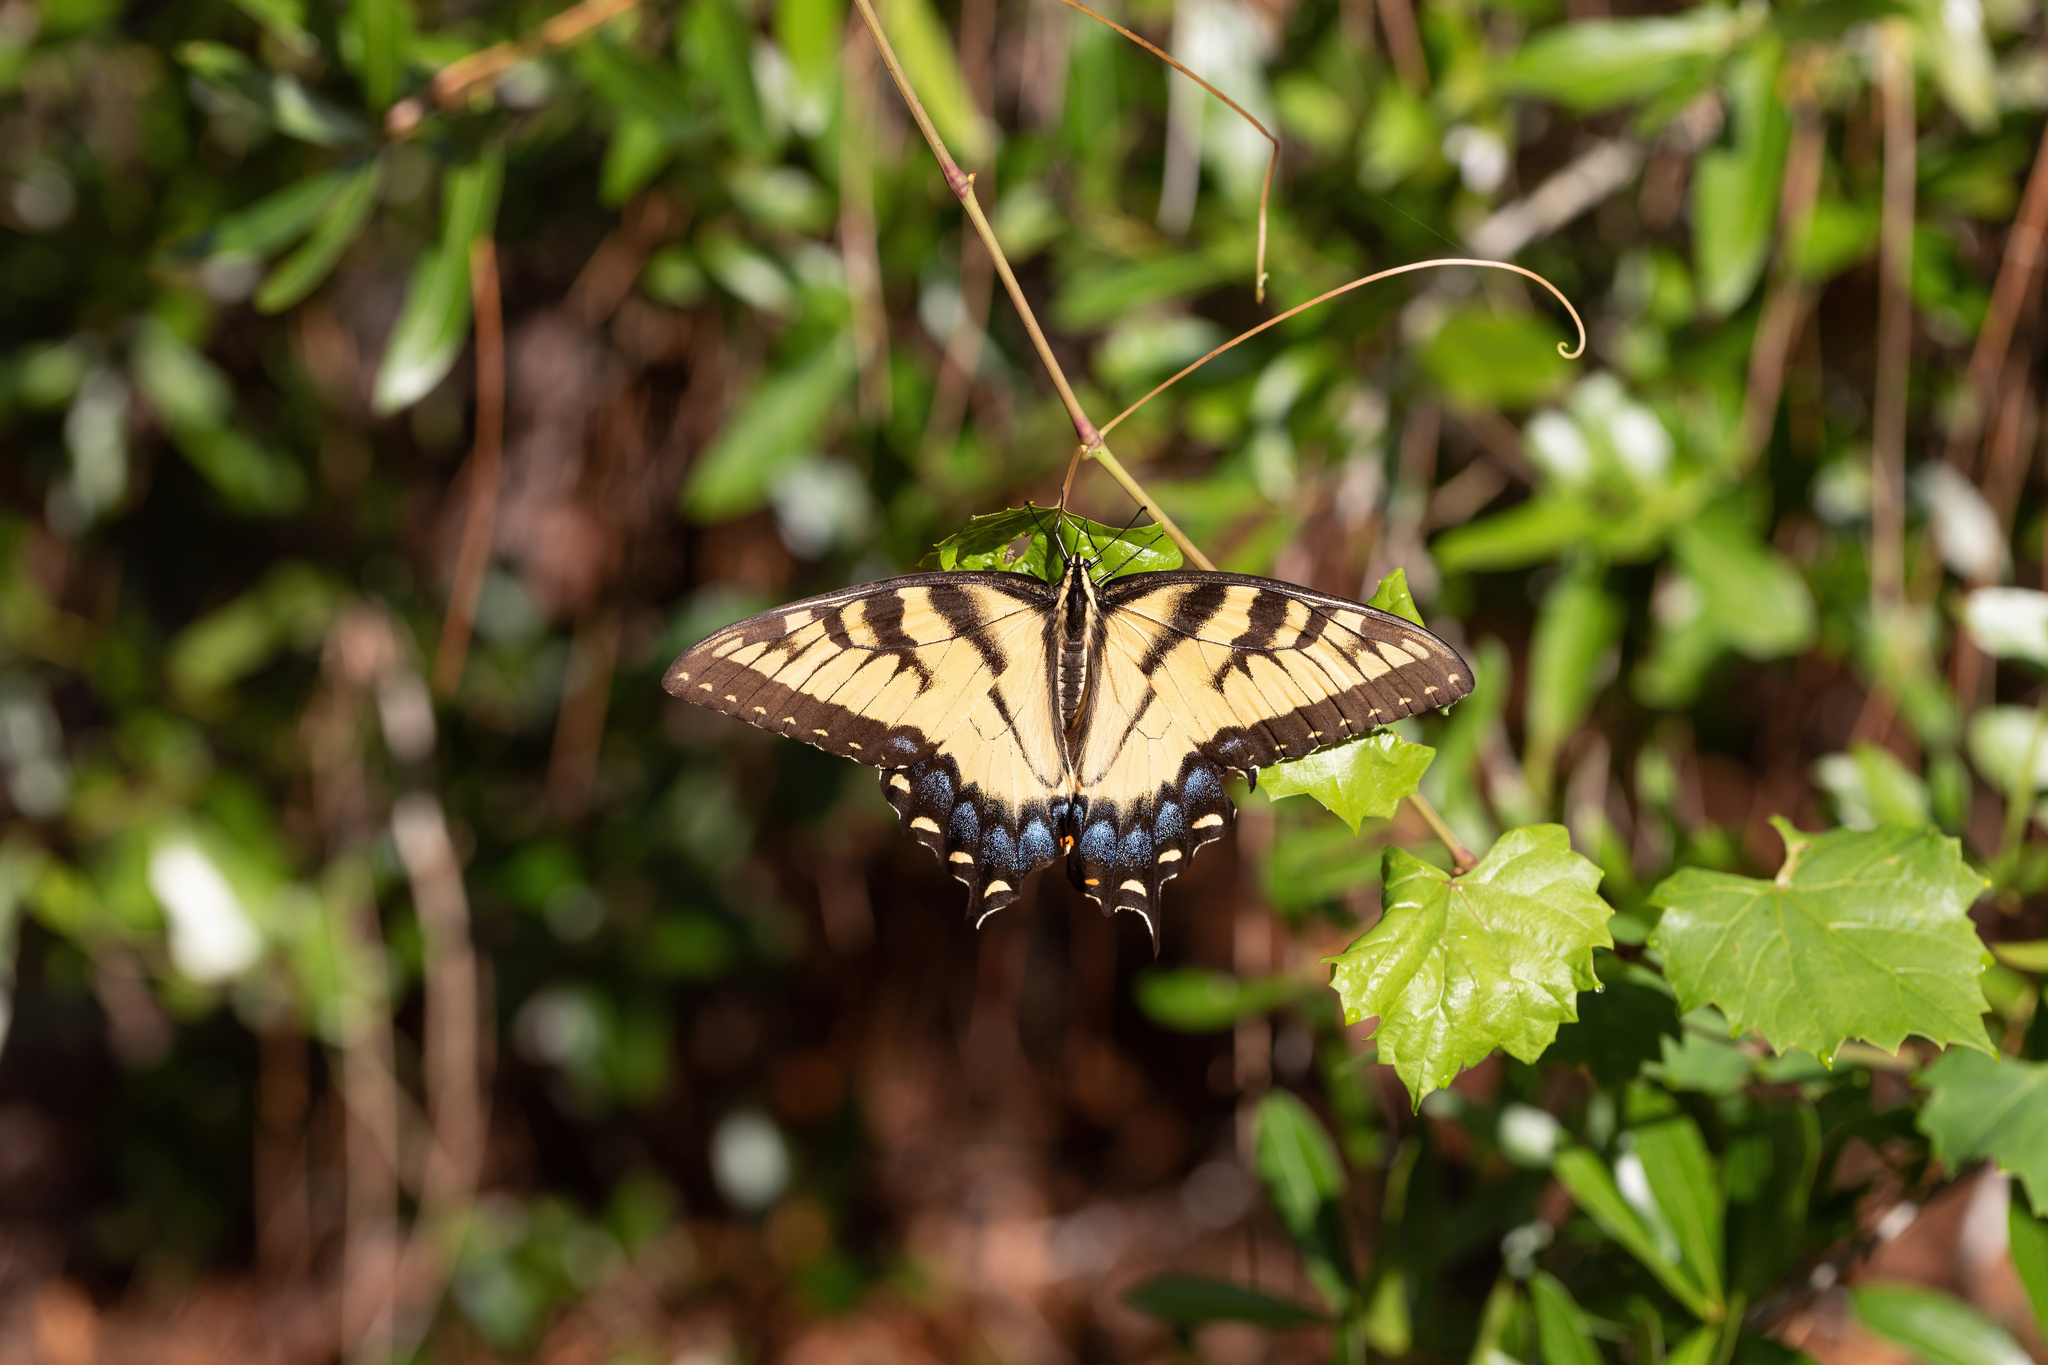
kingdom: Animalia
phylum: Arthropoda
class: Insecta
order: Lepidoptera
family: Papilionidae
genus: Papilio
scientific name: Papilio glaucus
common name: Tiger swallowtail
